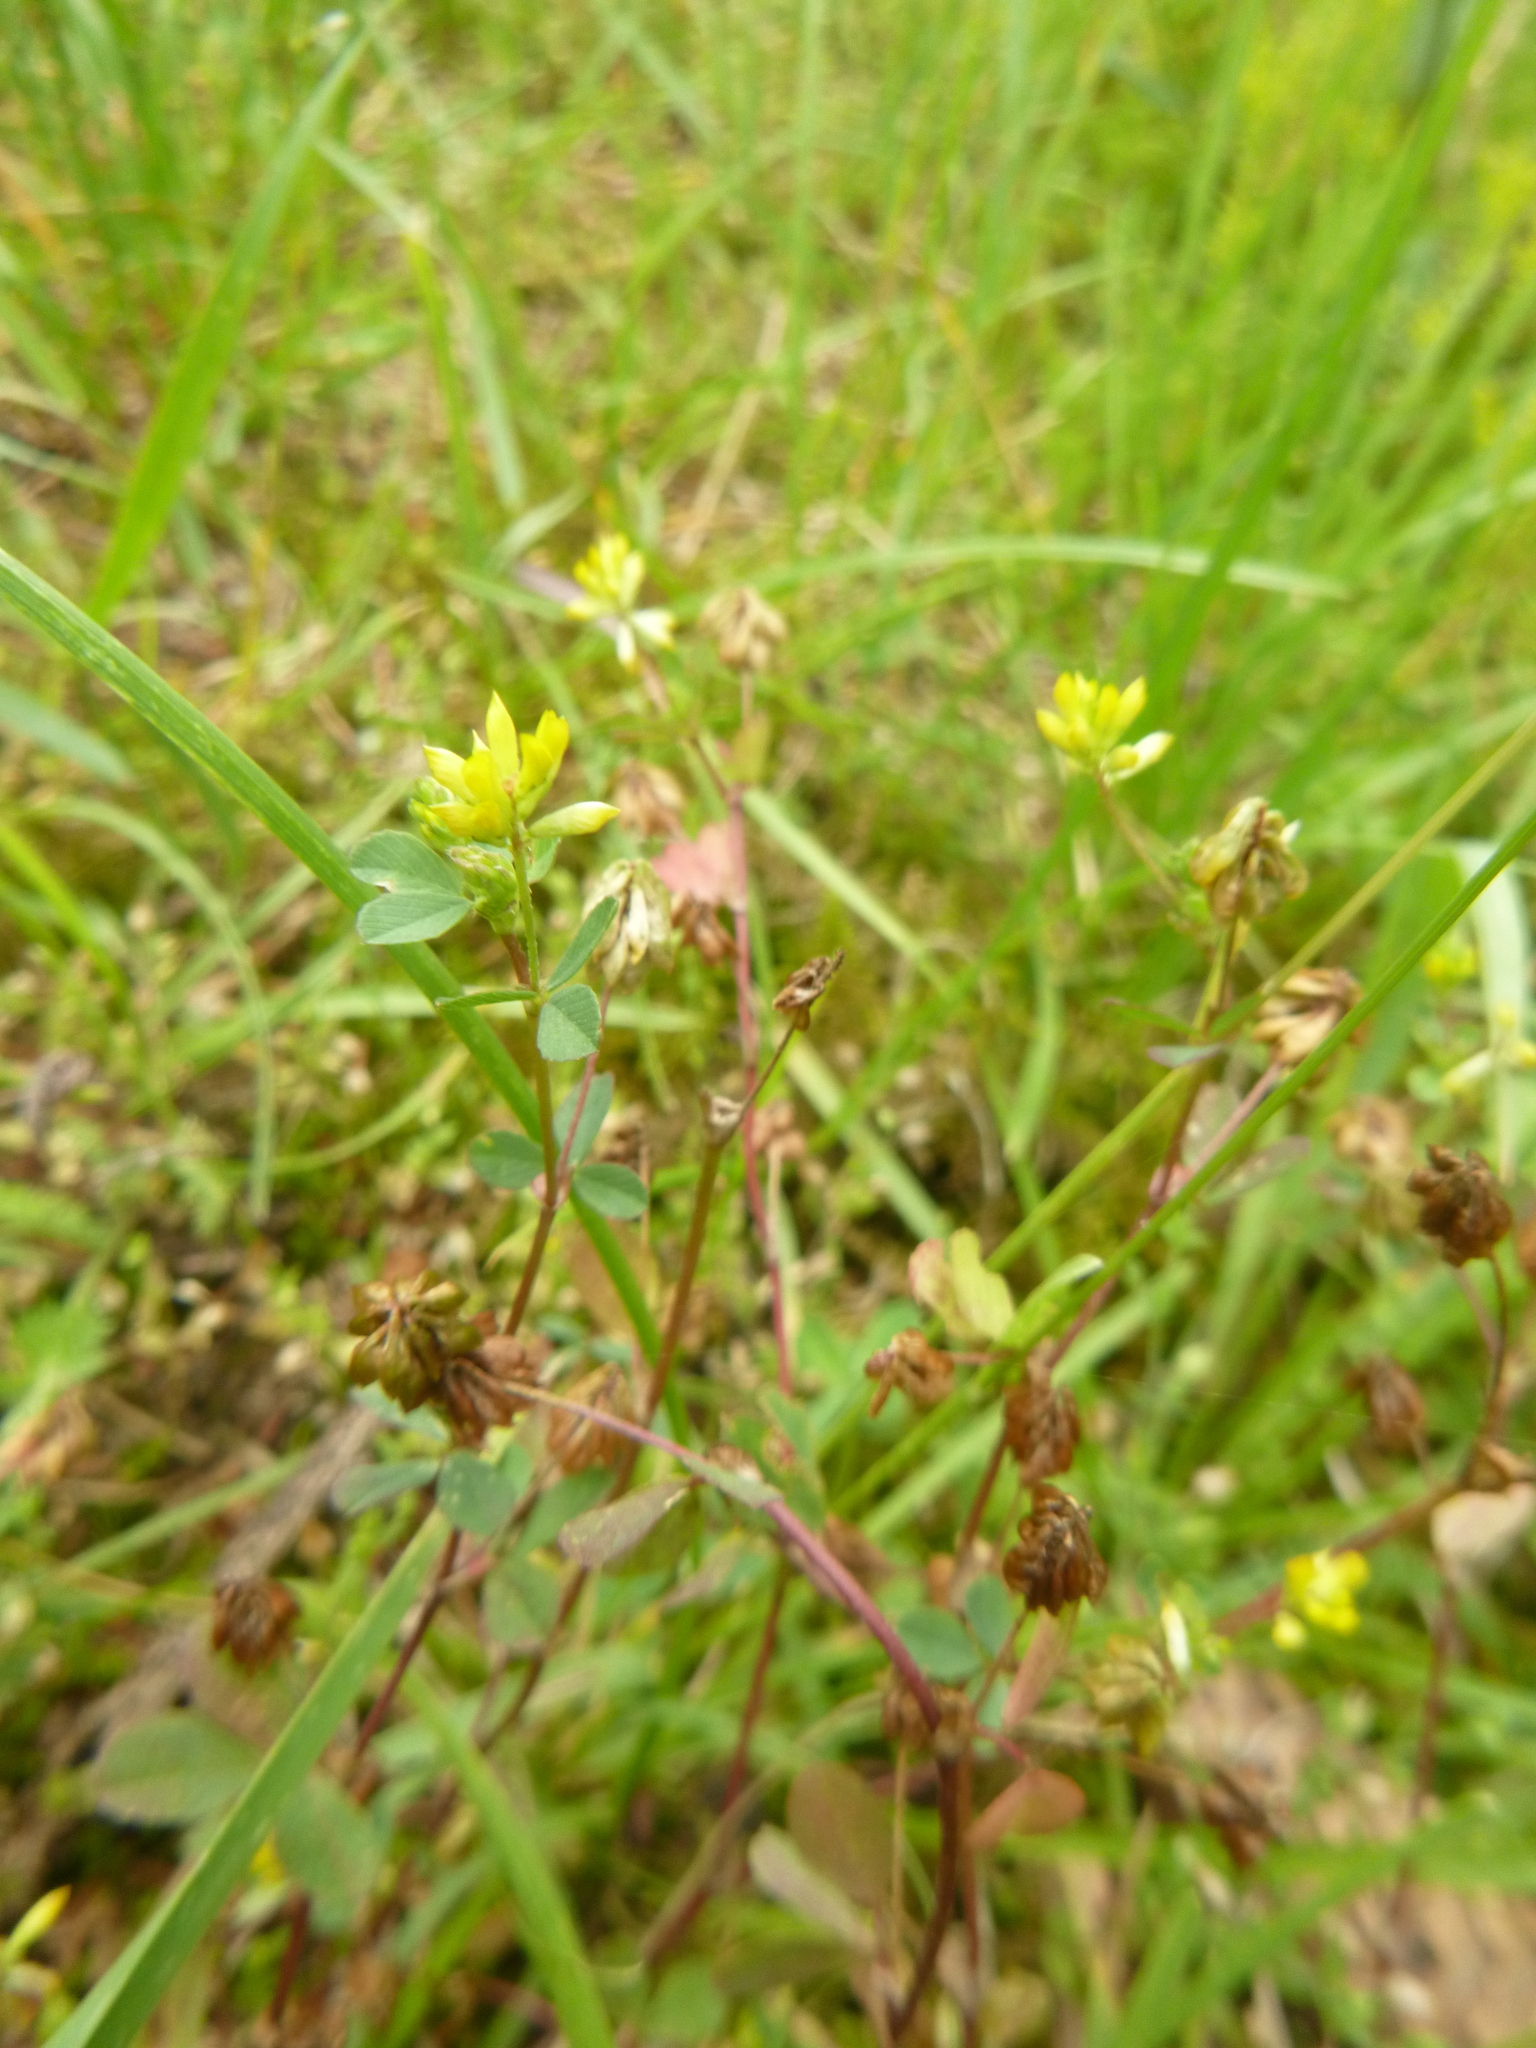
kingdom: Plantae
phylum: Tracheophyta
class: Magnoliopsida
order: Fabales
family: Fabaceae
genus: Trifolium
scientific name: Trifolium dubium
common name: Suckling clover
